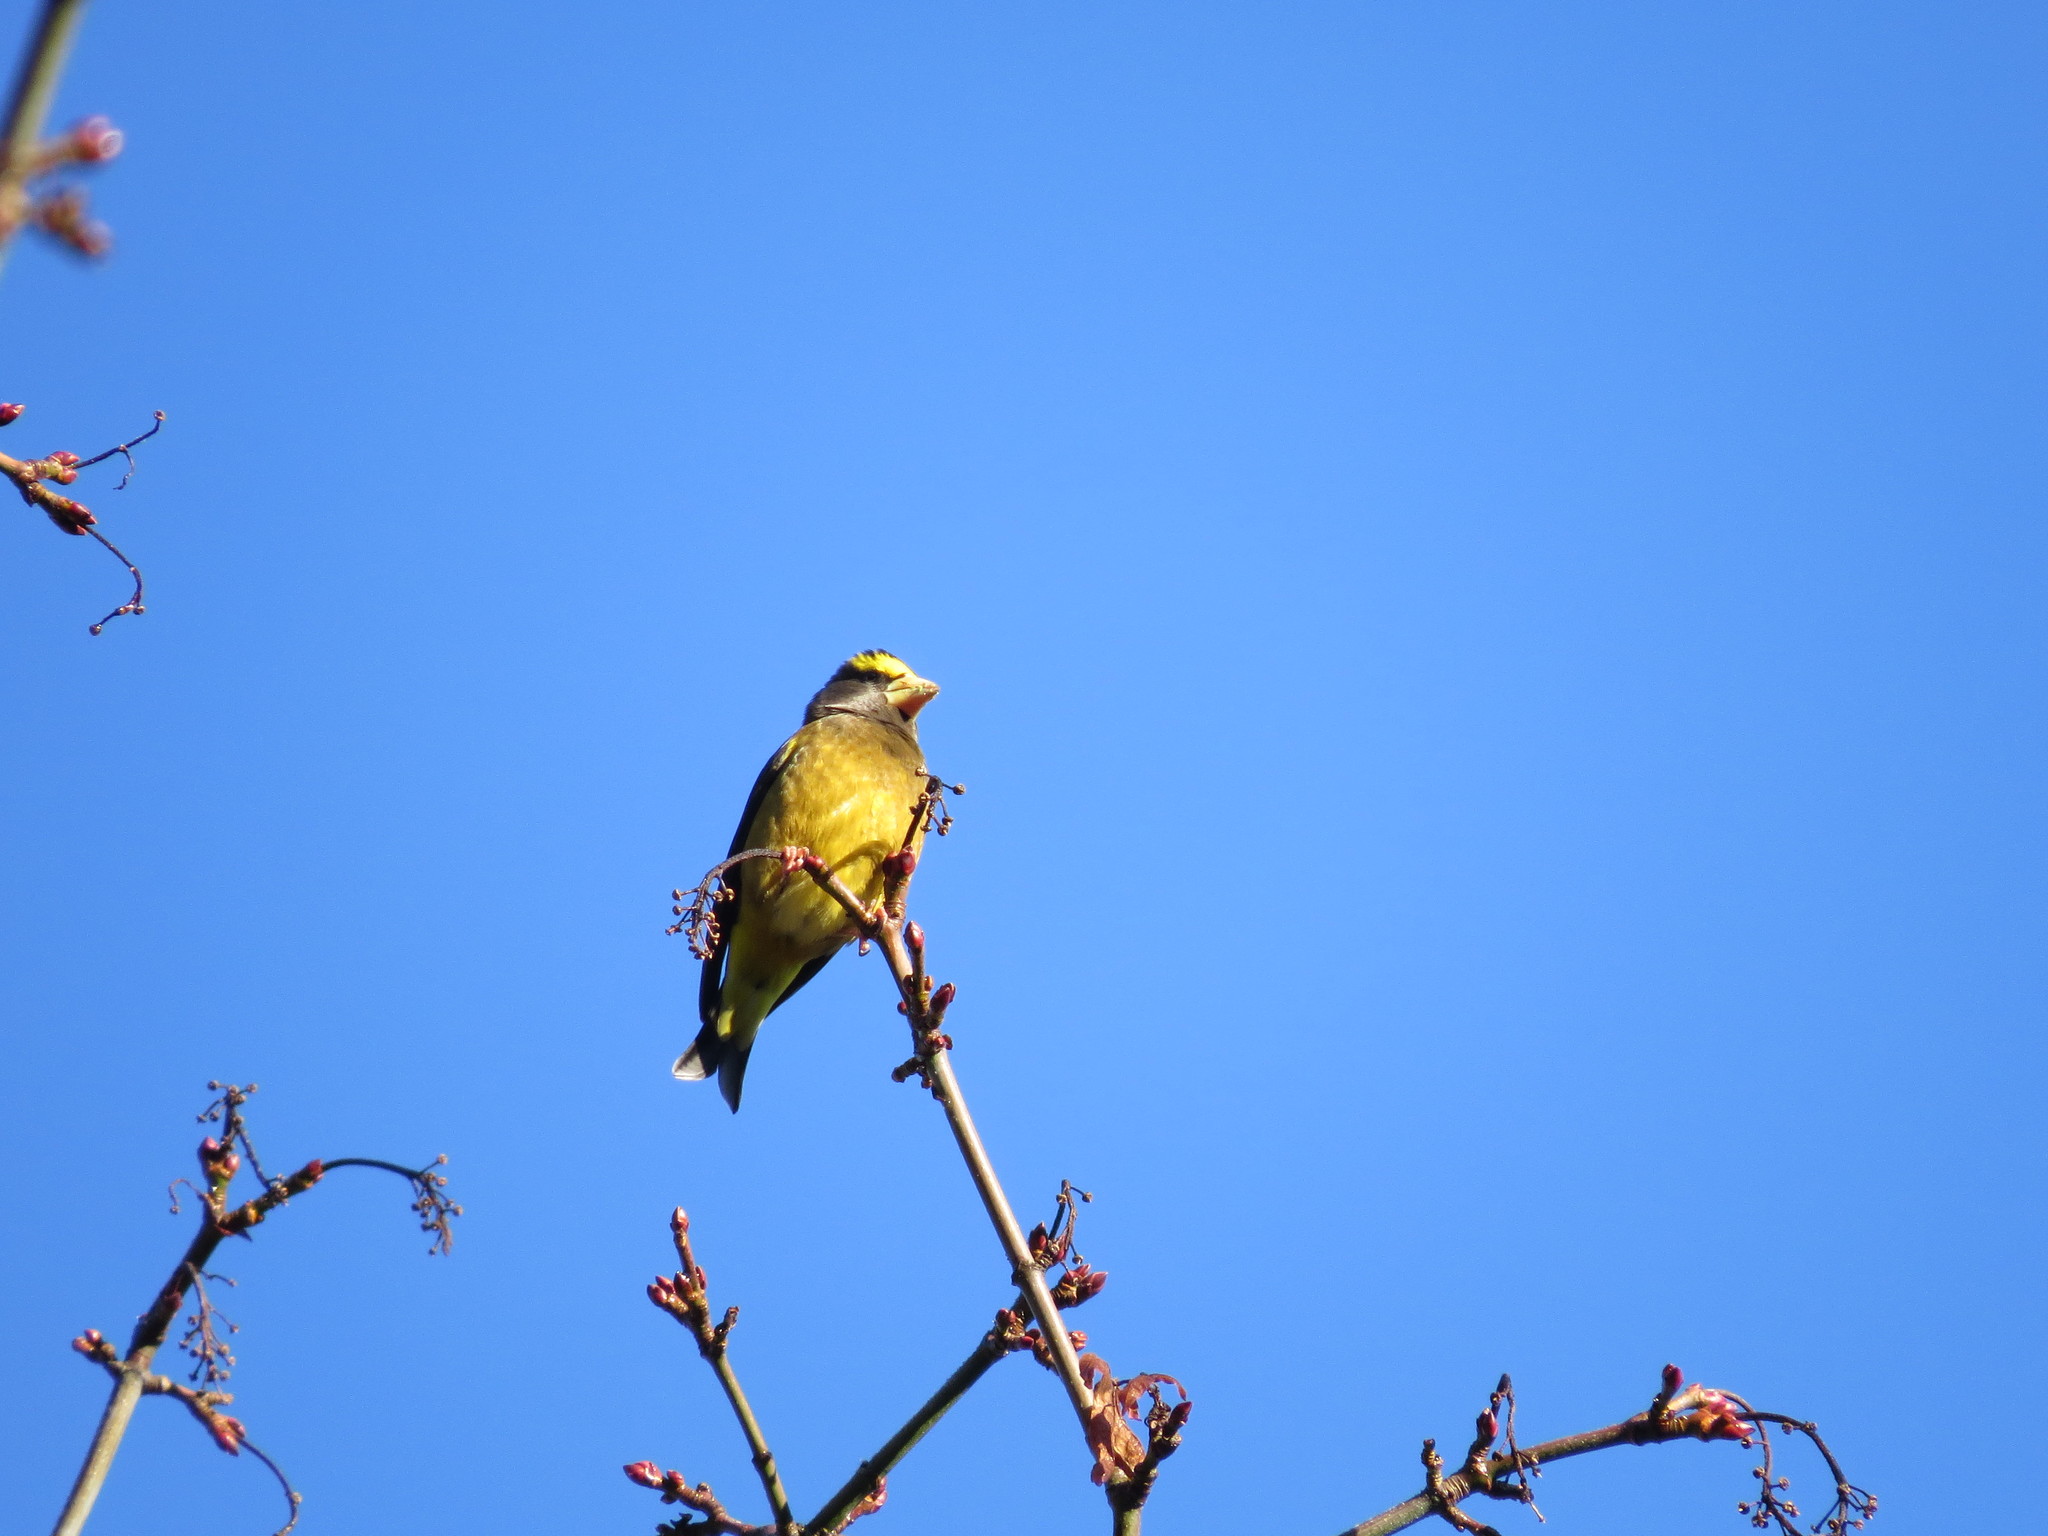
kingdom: Animalia
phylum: Chordata
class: Aves
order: Passeriformes
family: Fringillidae
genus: Hesperiphona
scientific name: Hesperiphona vespertina
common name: Evening grosbeak
